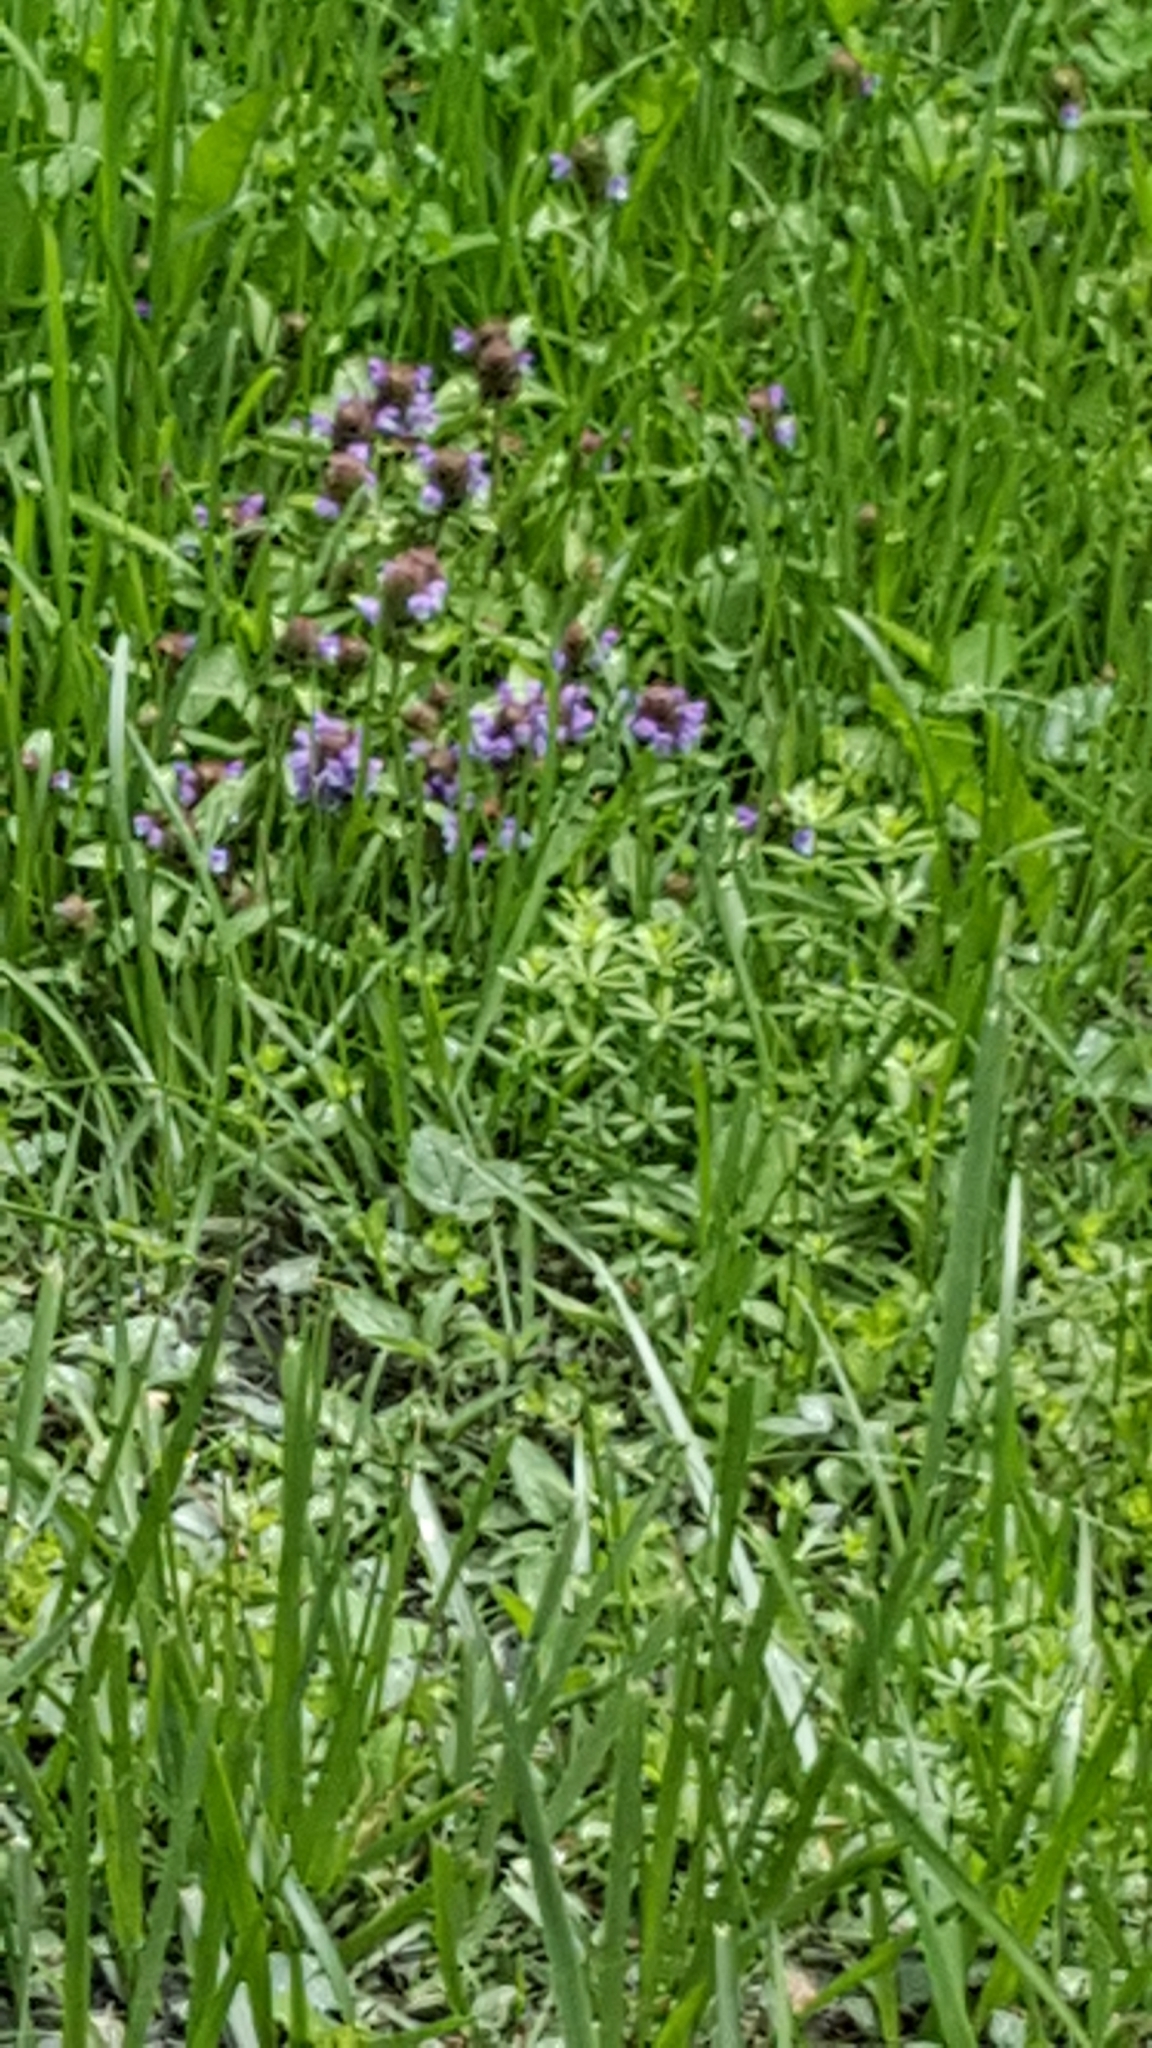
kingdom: Plantae
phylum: Tracheophyta
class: Magnoliopsida
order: Lamiales
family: Lamiaceae
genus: Prunella
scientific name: Prunella vulgaris
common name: Heal-all
